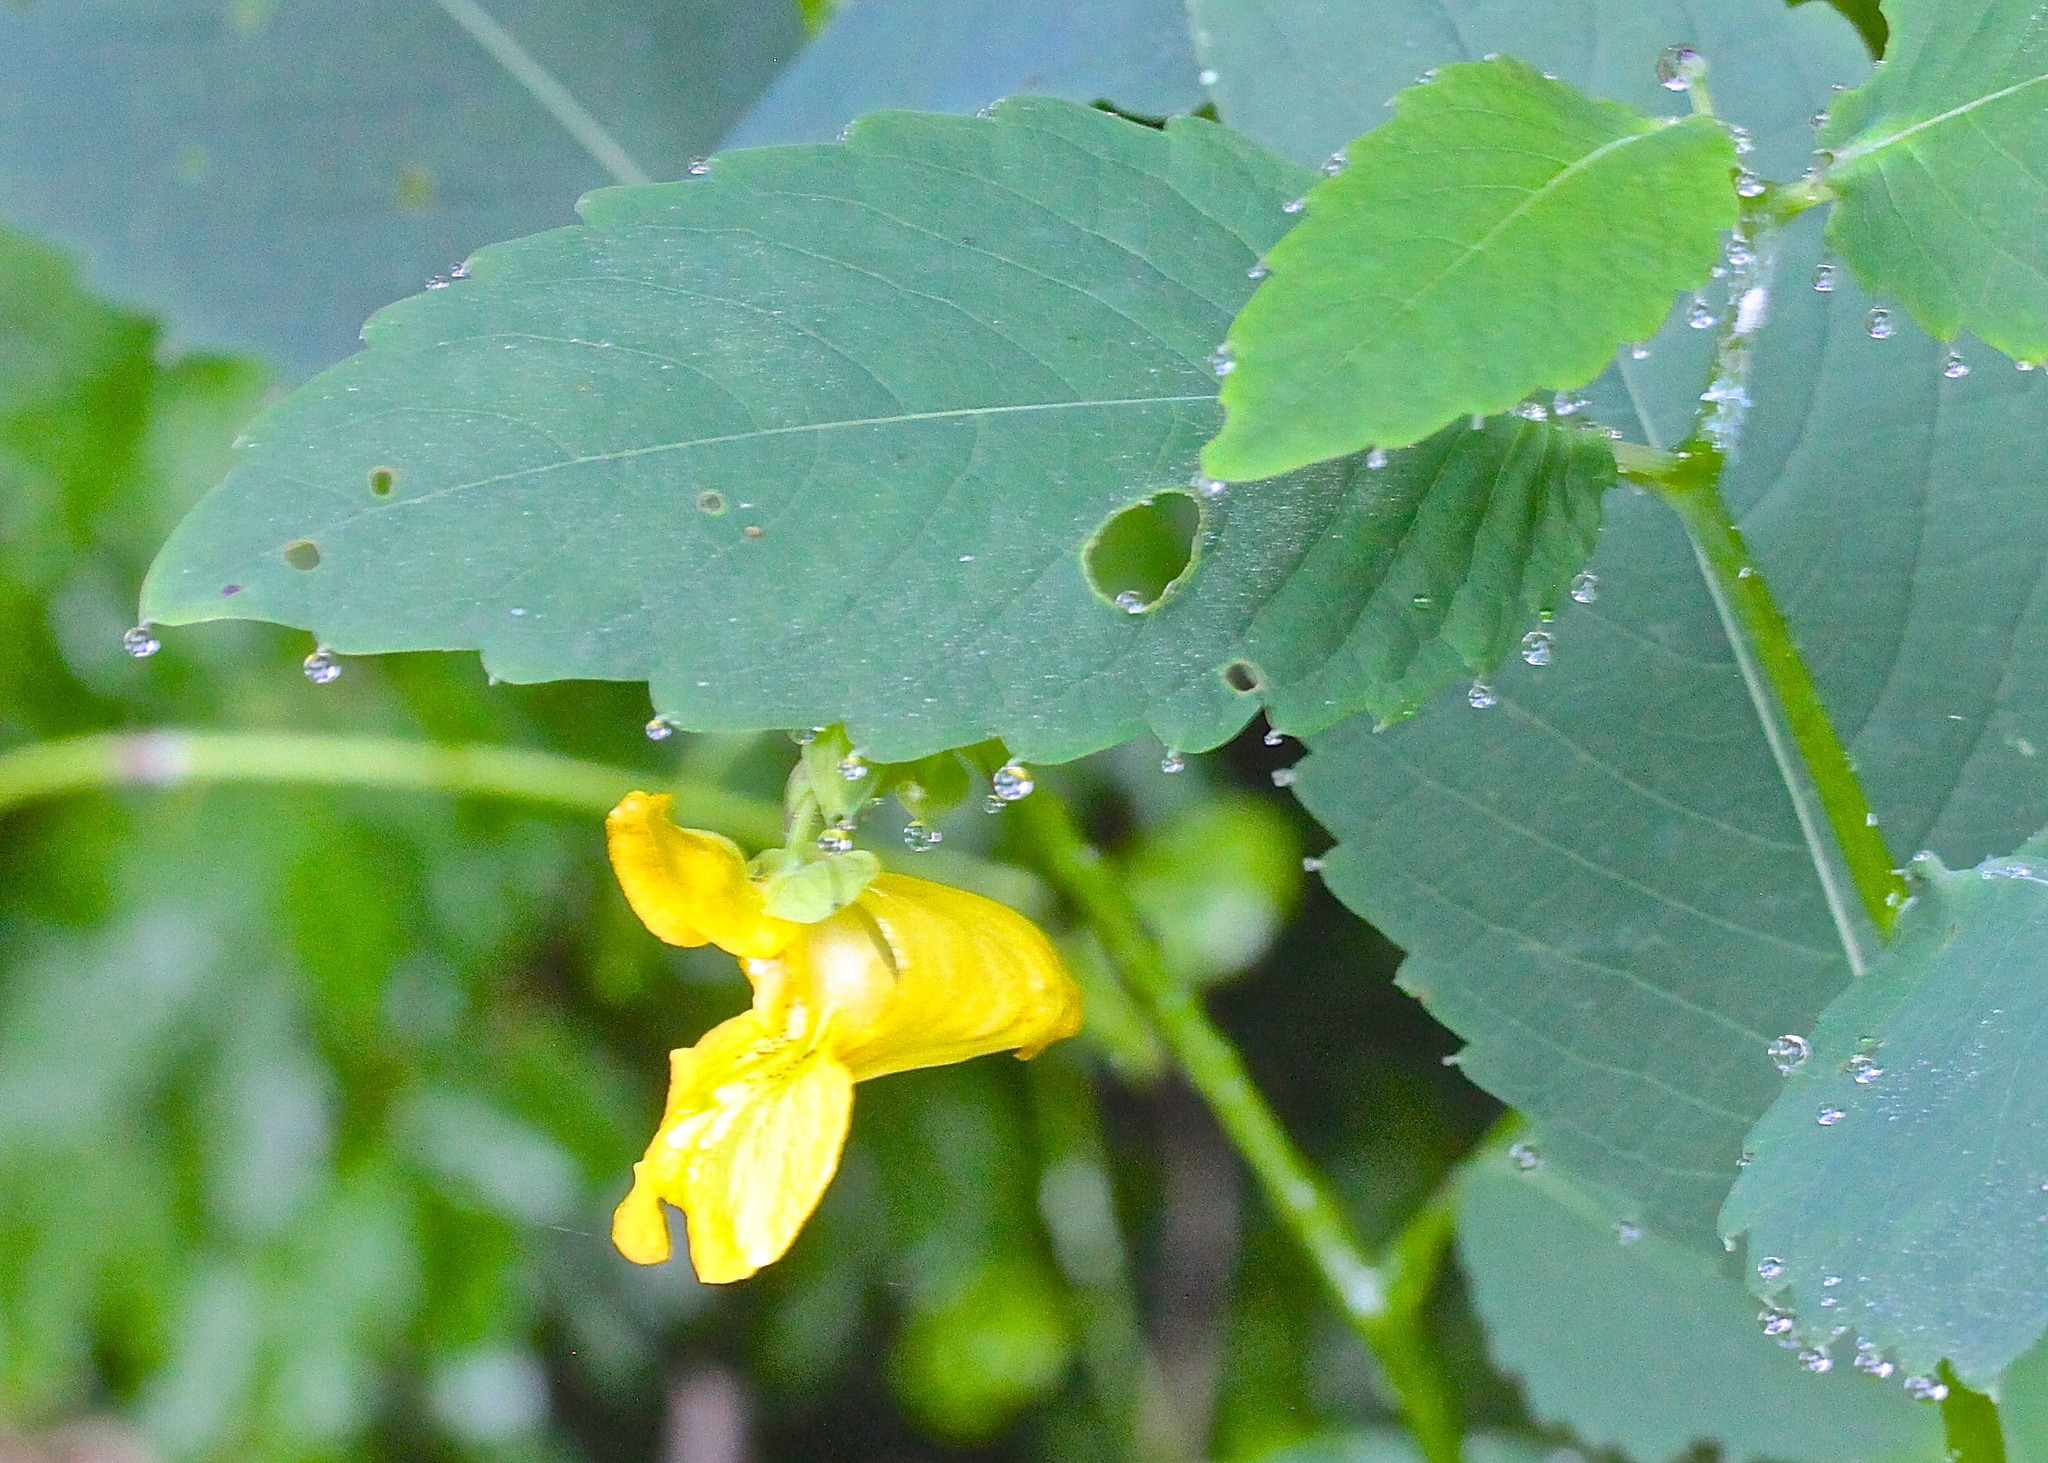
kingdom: Plantae
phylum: Tracheophyta
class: Magnoliopsida
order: Ericales
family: Balsaminaceae
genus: Impatiens
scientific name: Impatiens pallida
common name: Pale snapweed
